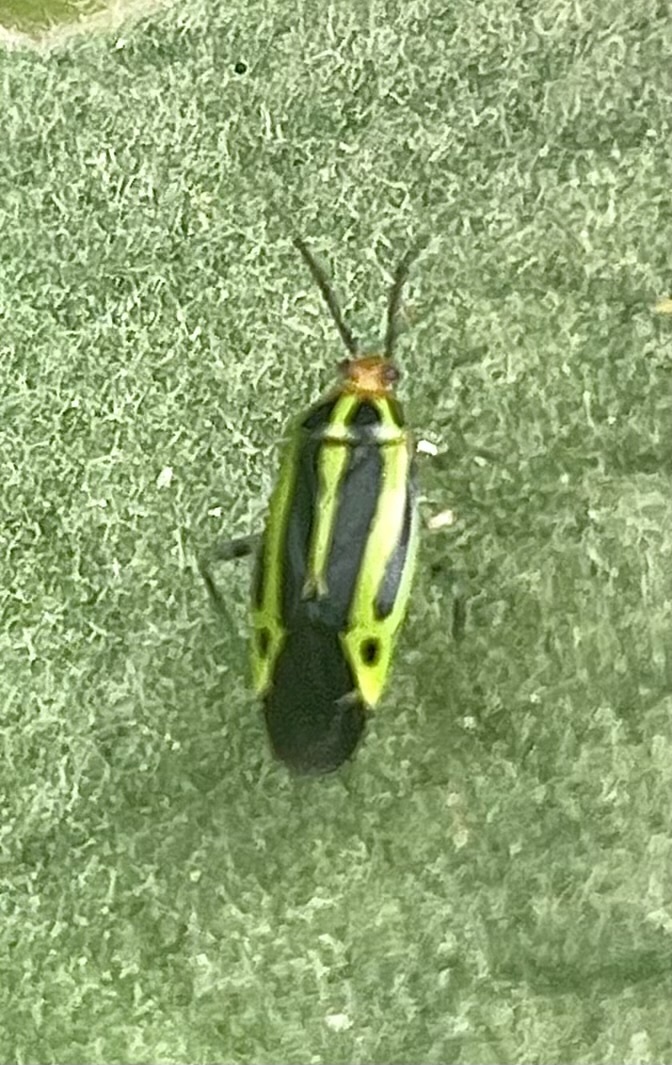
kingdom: Animalia
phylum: Arthropoda
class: Insecta
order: Hemiptera
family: Miridae
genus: Poecilocapsus
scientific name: Poecilocapsus lineatus
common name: Four-lined plant bug
